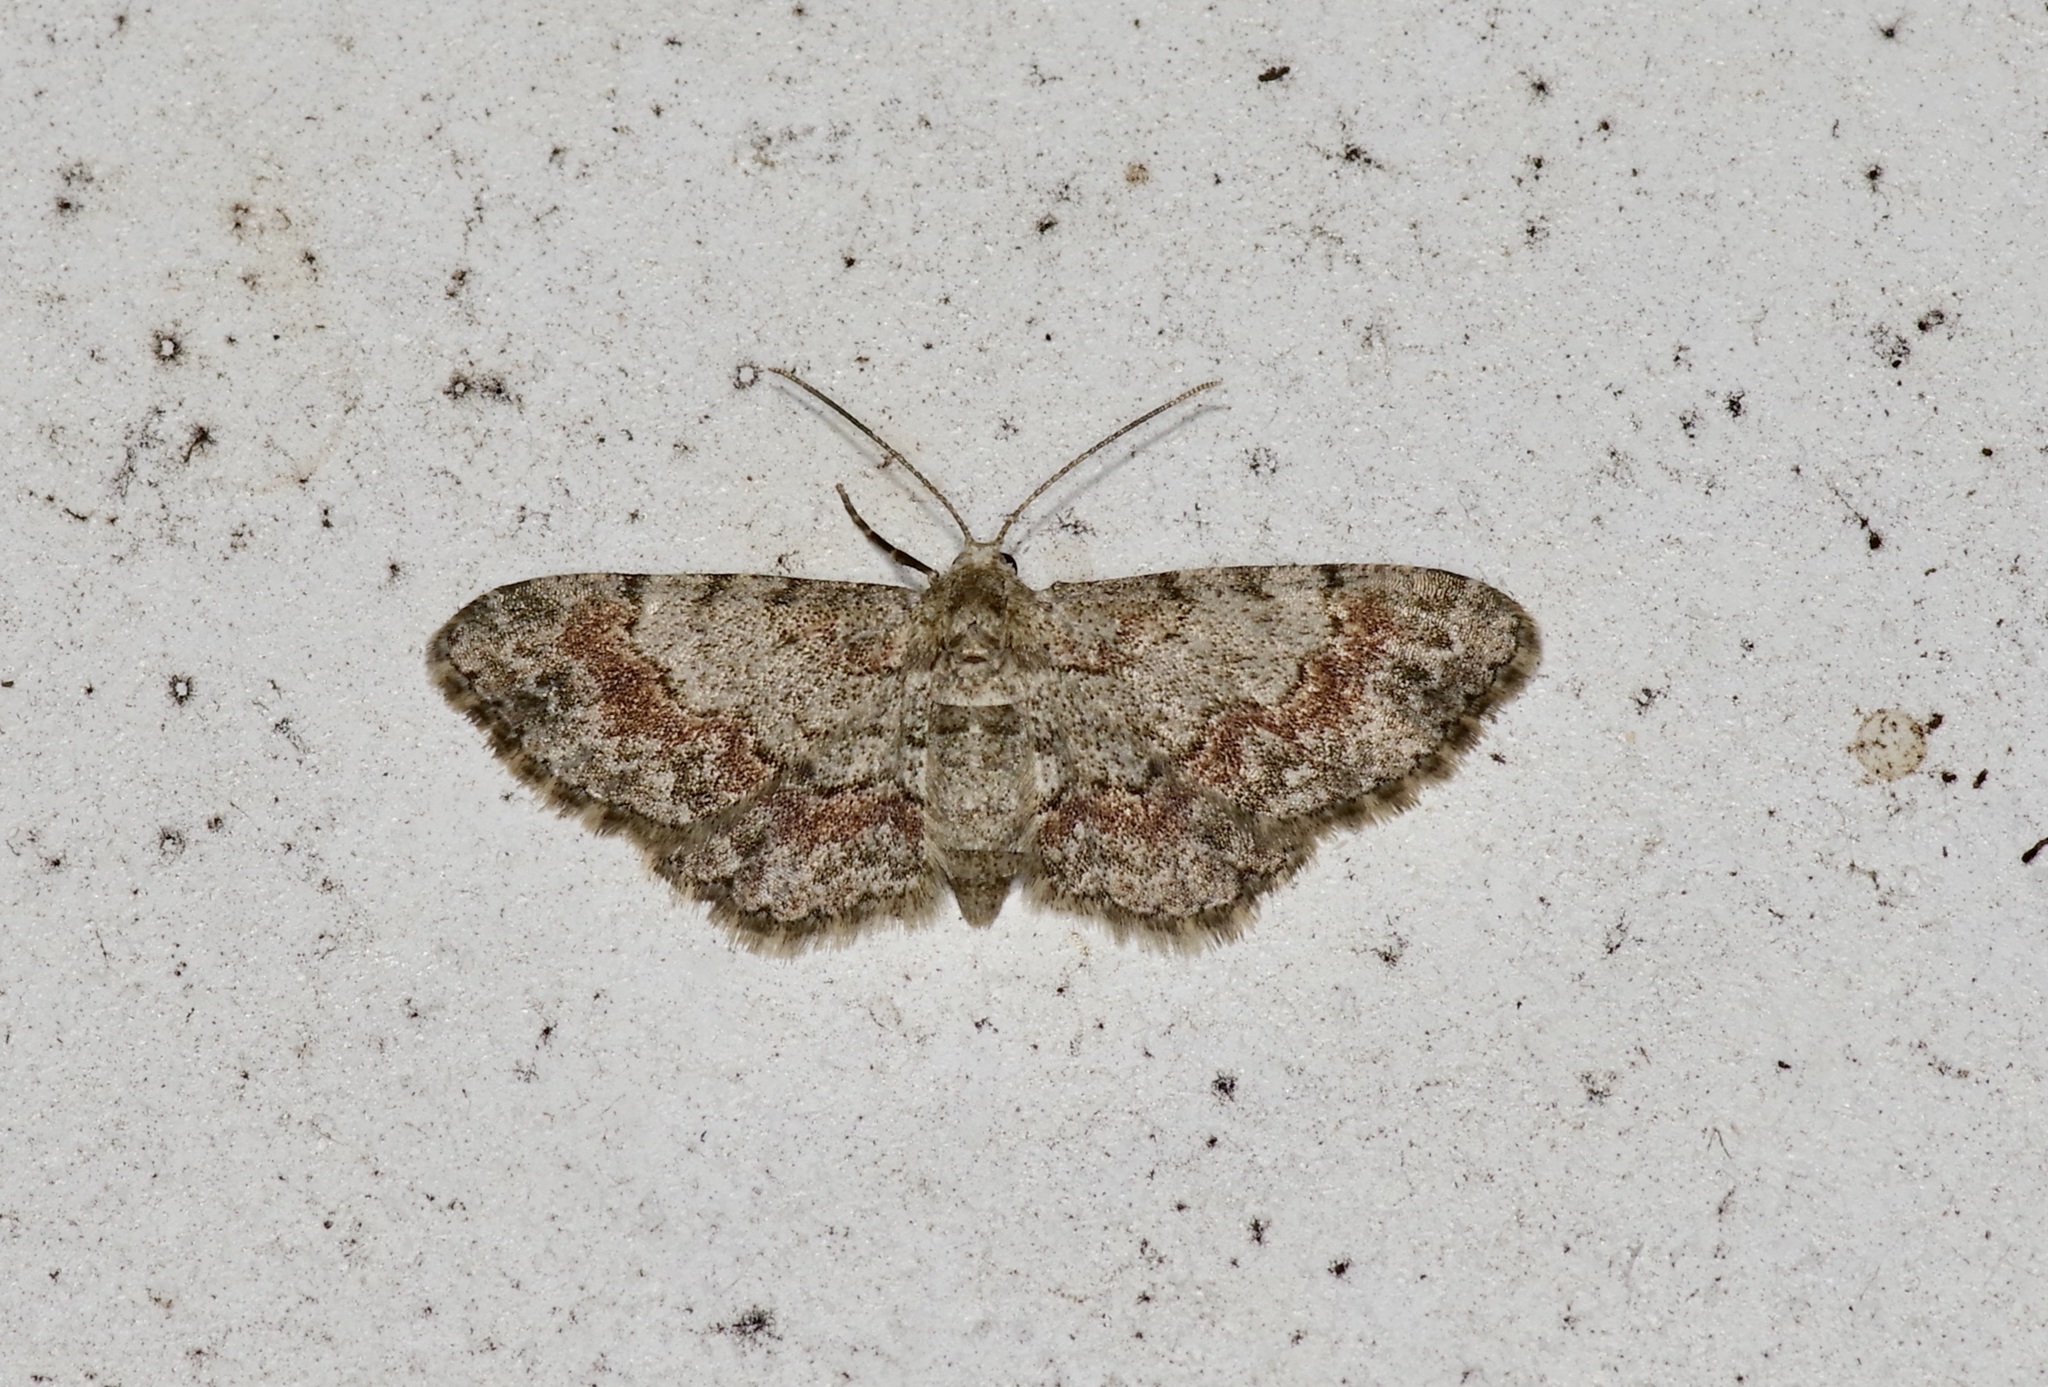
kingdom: Animalia
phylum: Arthropoda
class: Insecta
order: Lepidoptera
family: Geometridae
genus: Glenoides
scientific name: Glenoides texanaria
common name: Texas gray
